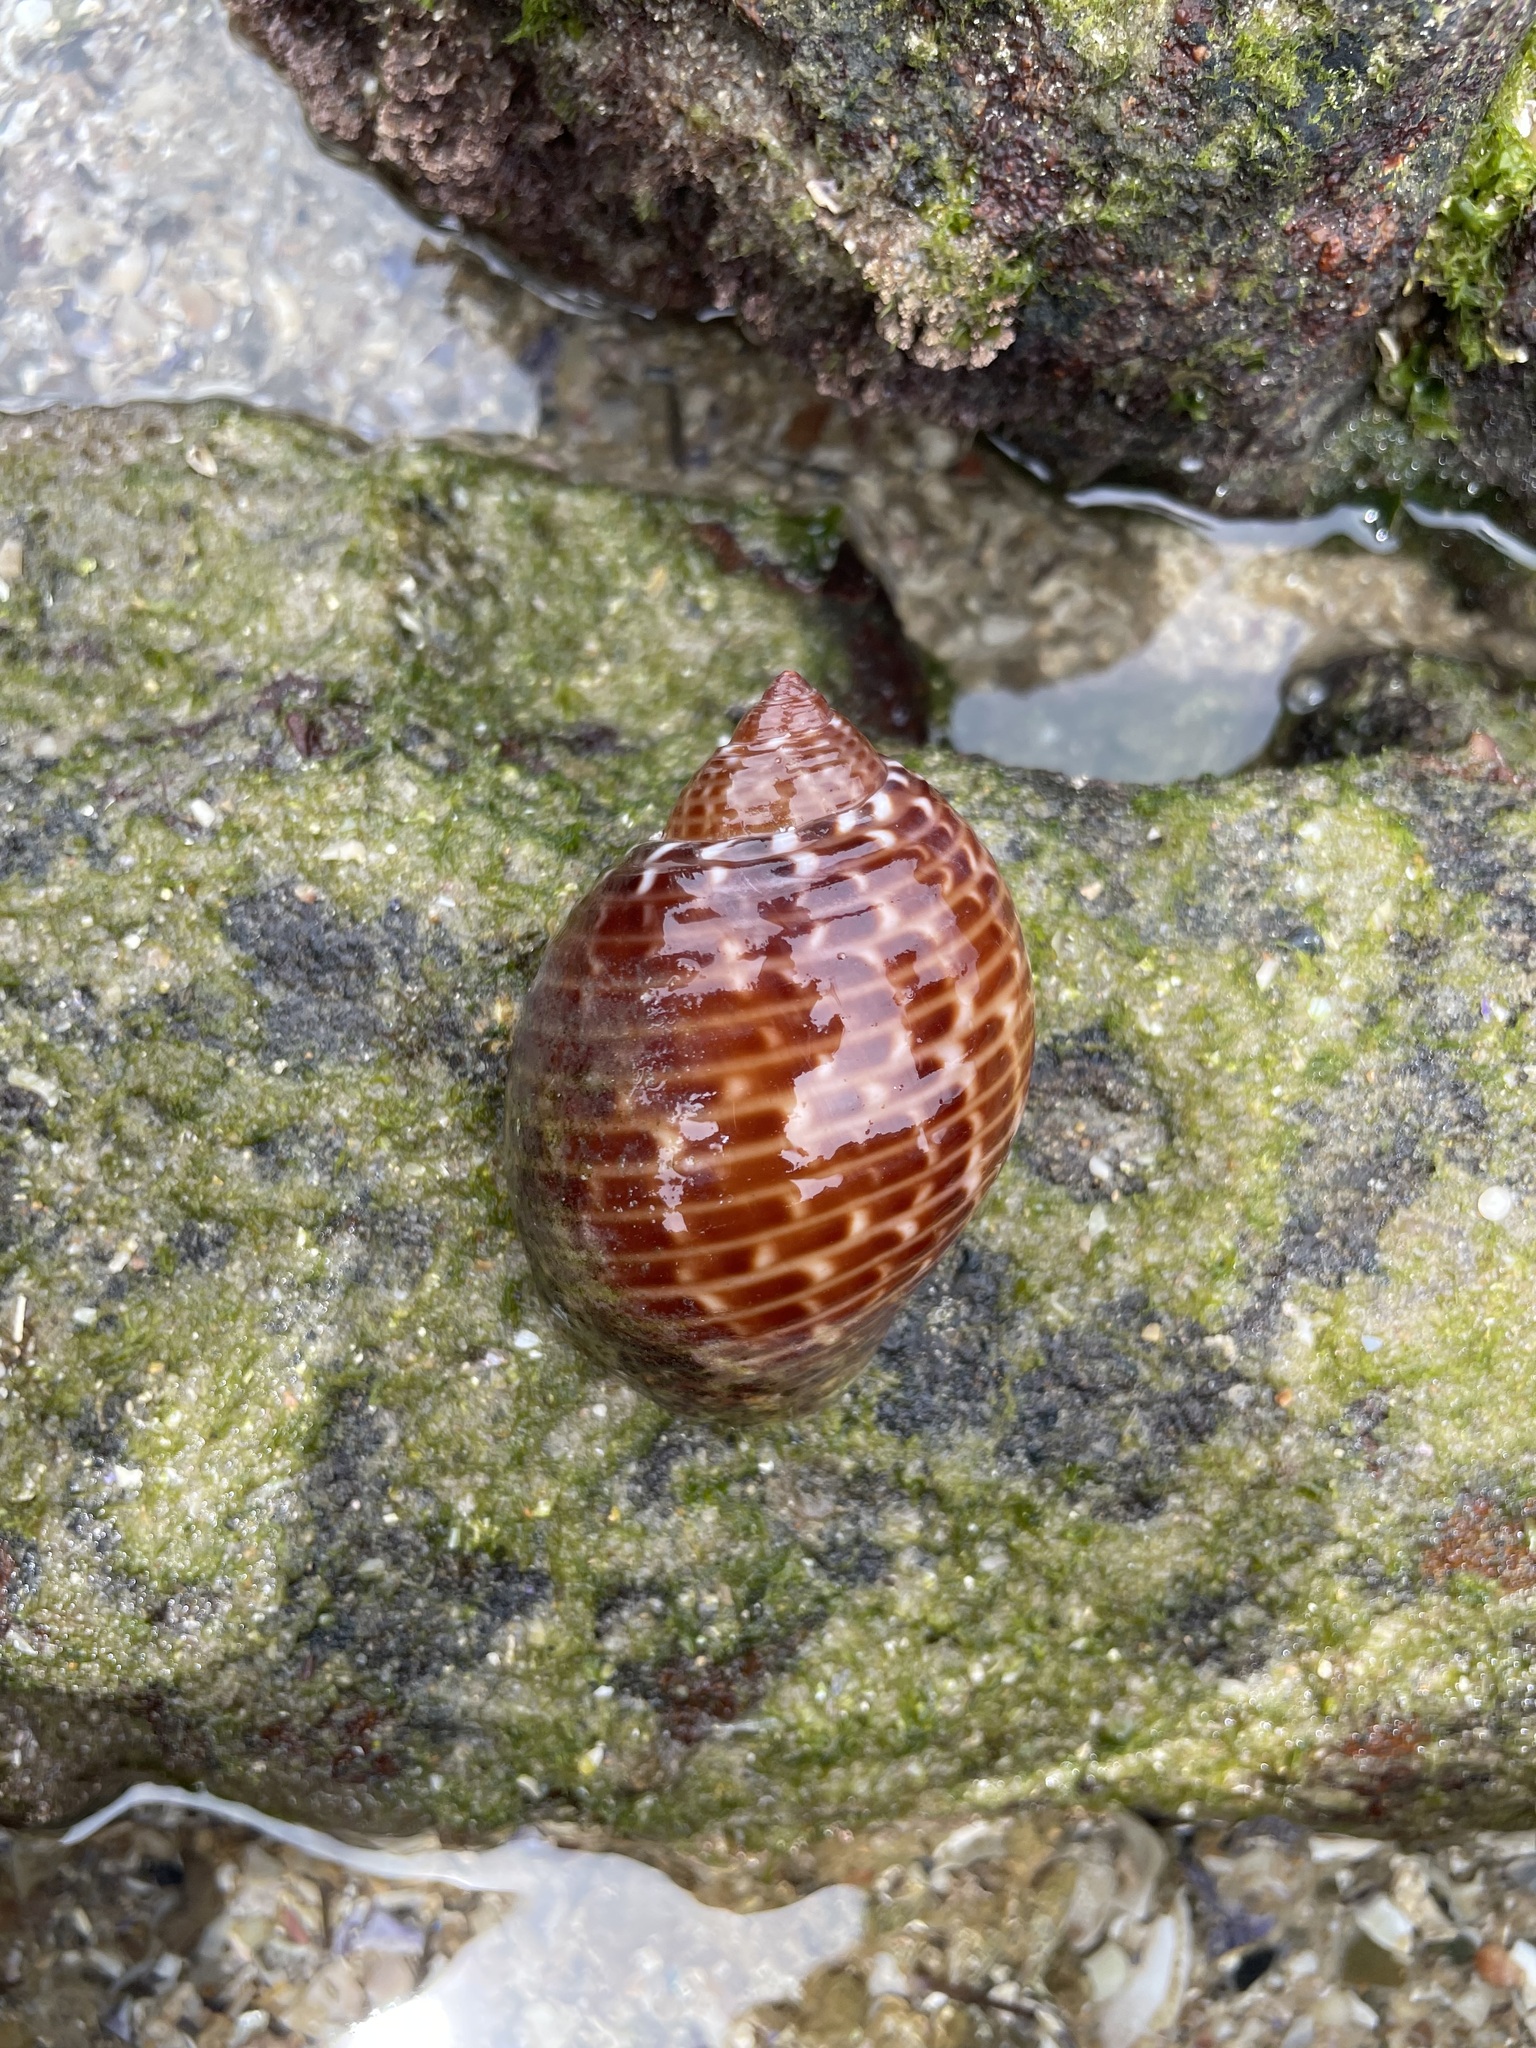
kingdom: Animalia
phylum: Mollusca
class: Gastropoda
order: Littorinimorpha
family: Tonnidae
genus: Tonna
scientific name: Tonna perdix
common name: Pacific partridge tun
